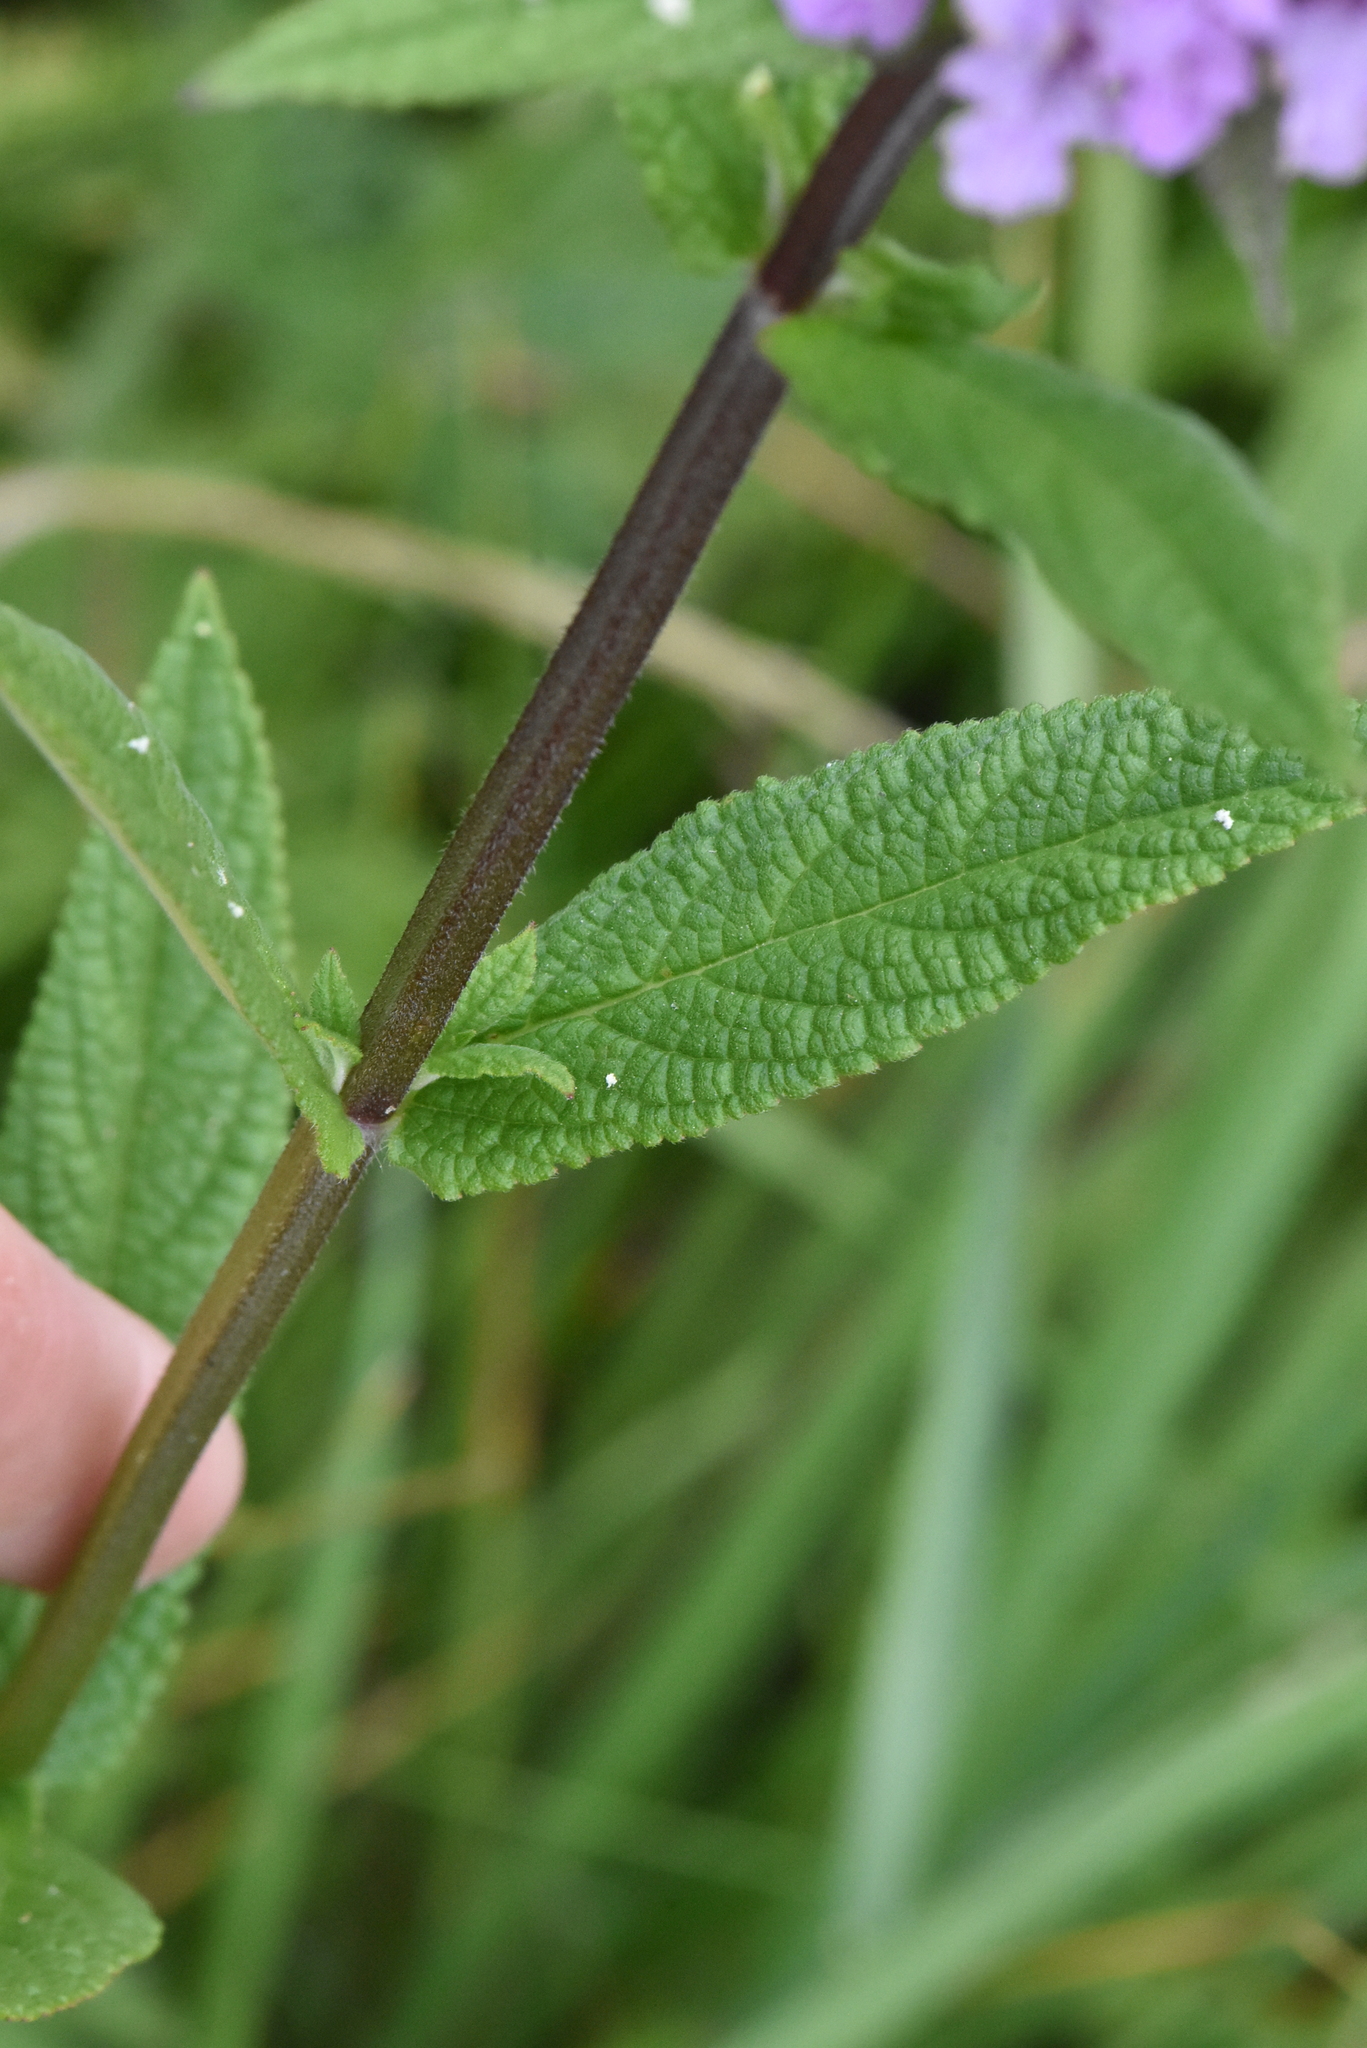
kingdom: Plantae
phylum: Tracheophyta
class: Magnoliopsida
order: Lamiales
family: Lamiaceae
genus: Stachys
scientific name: Stachys palustris
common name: Marsh woundwort
